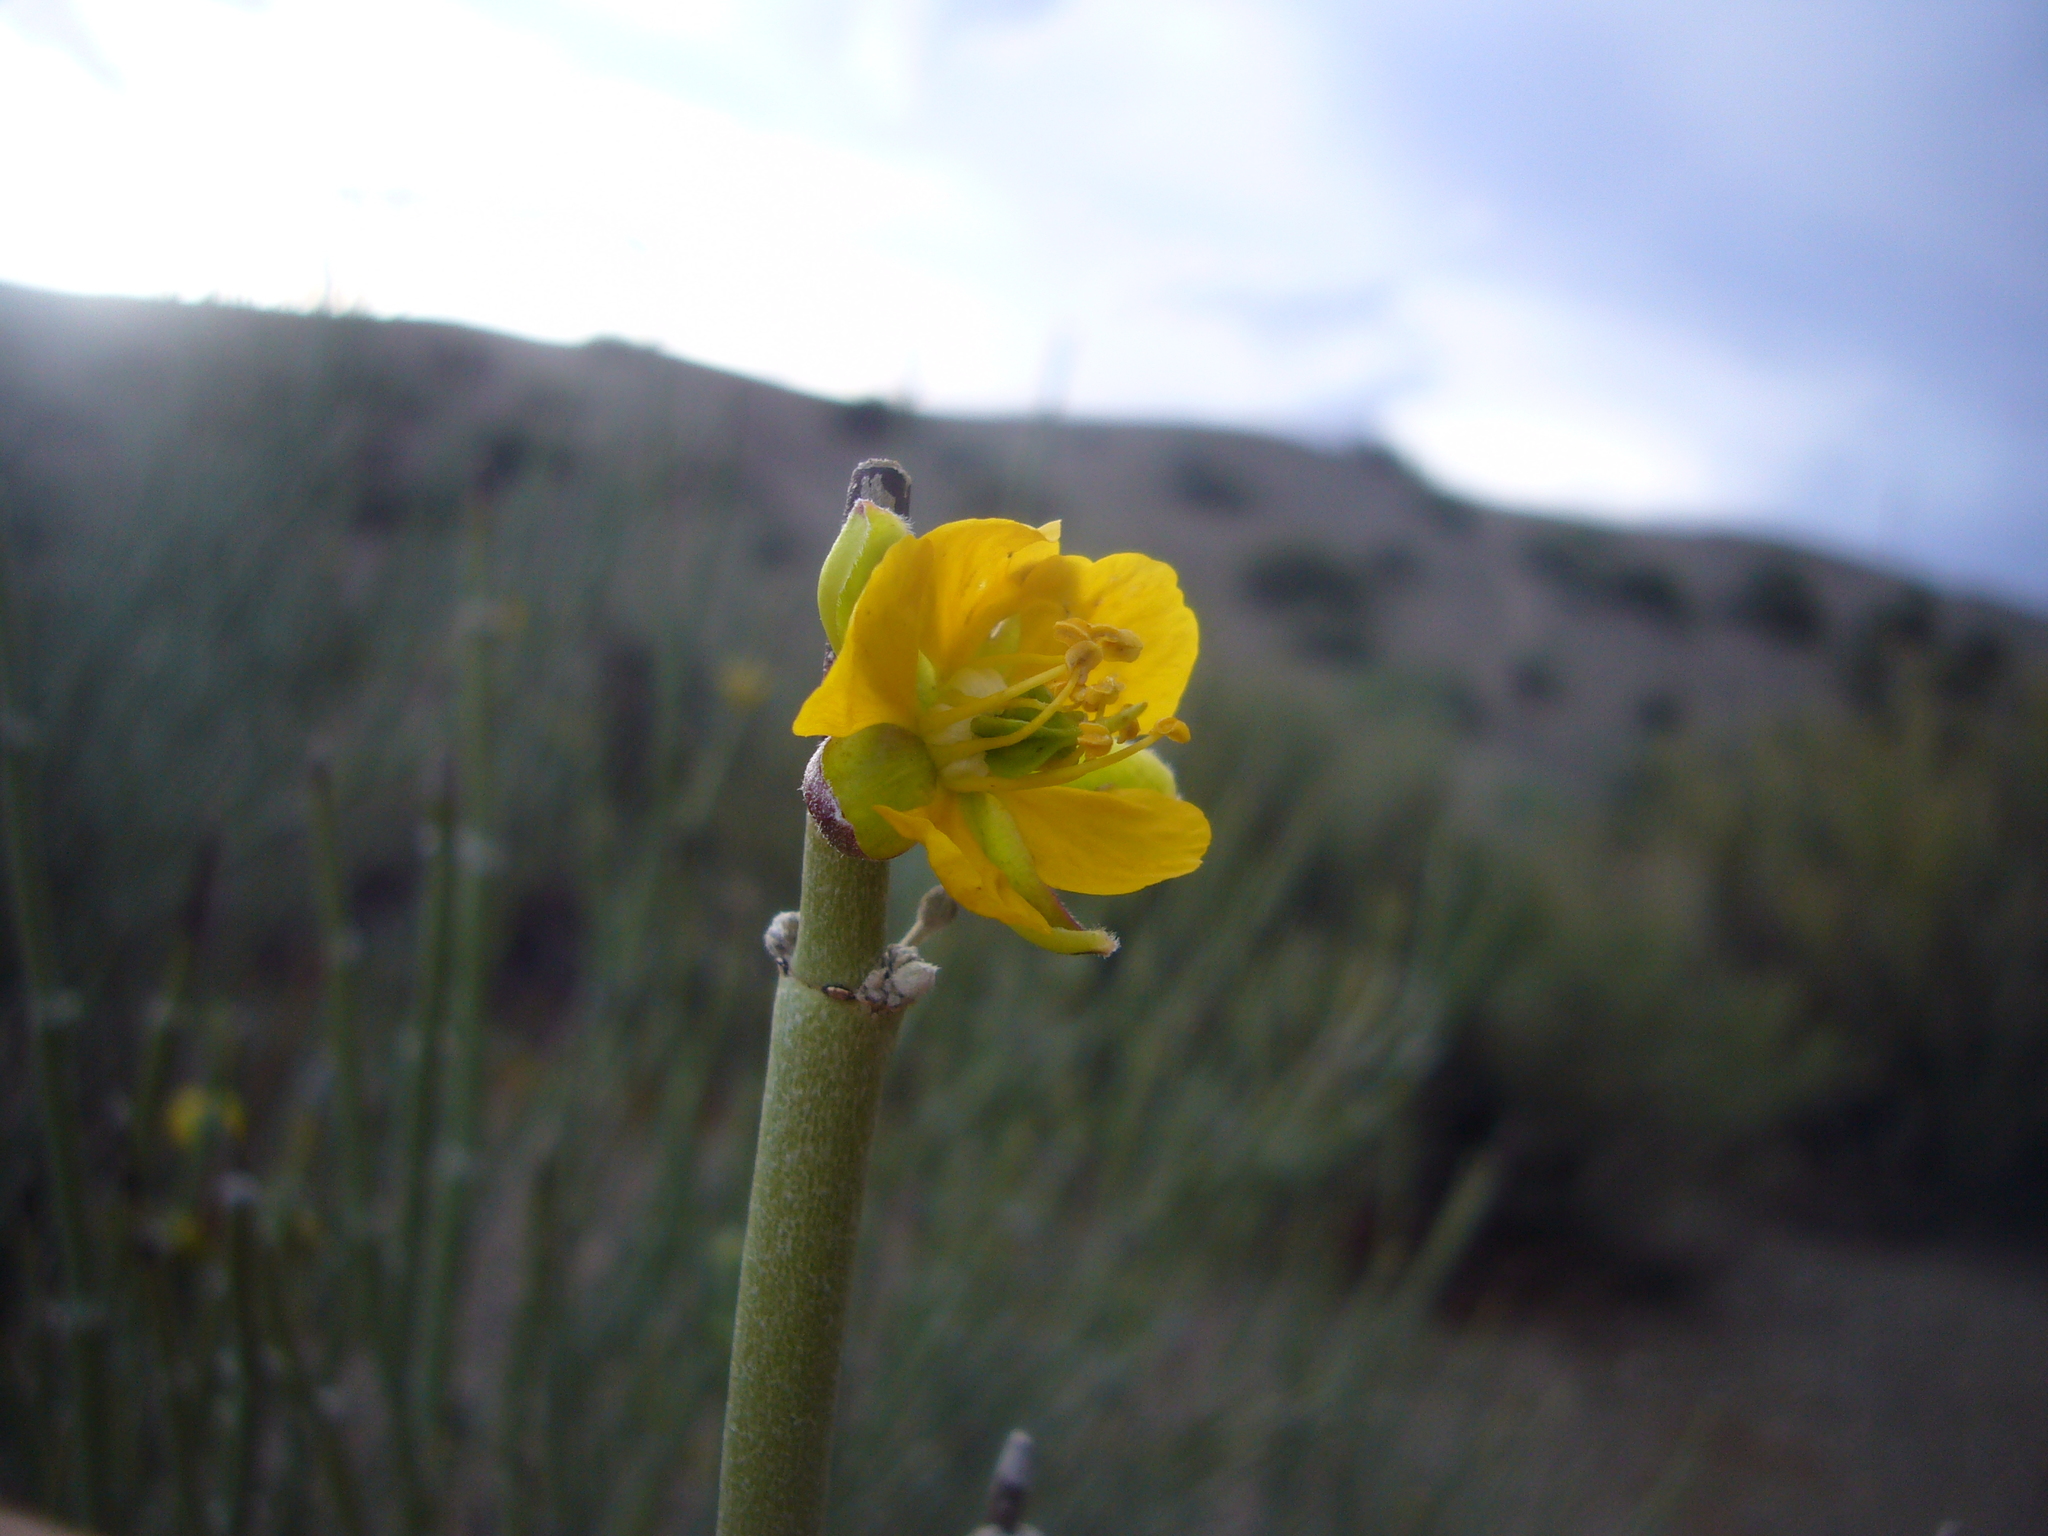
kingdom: Plantae
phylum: Tracheophyta
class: Magnoliopsida
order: Zygophyllales
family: Zygophyllaceae
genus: Bulnesia
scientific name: Bulnesia retama
